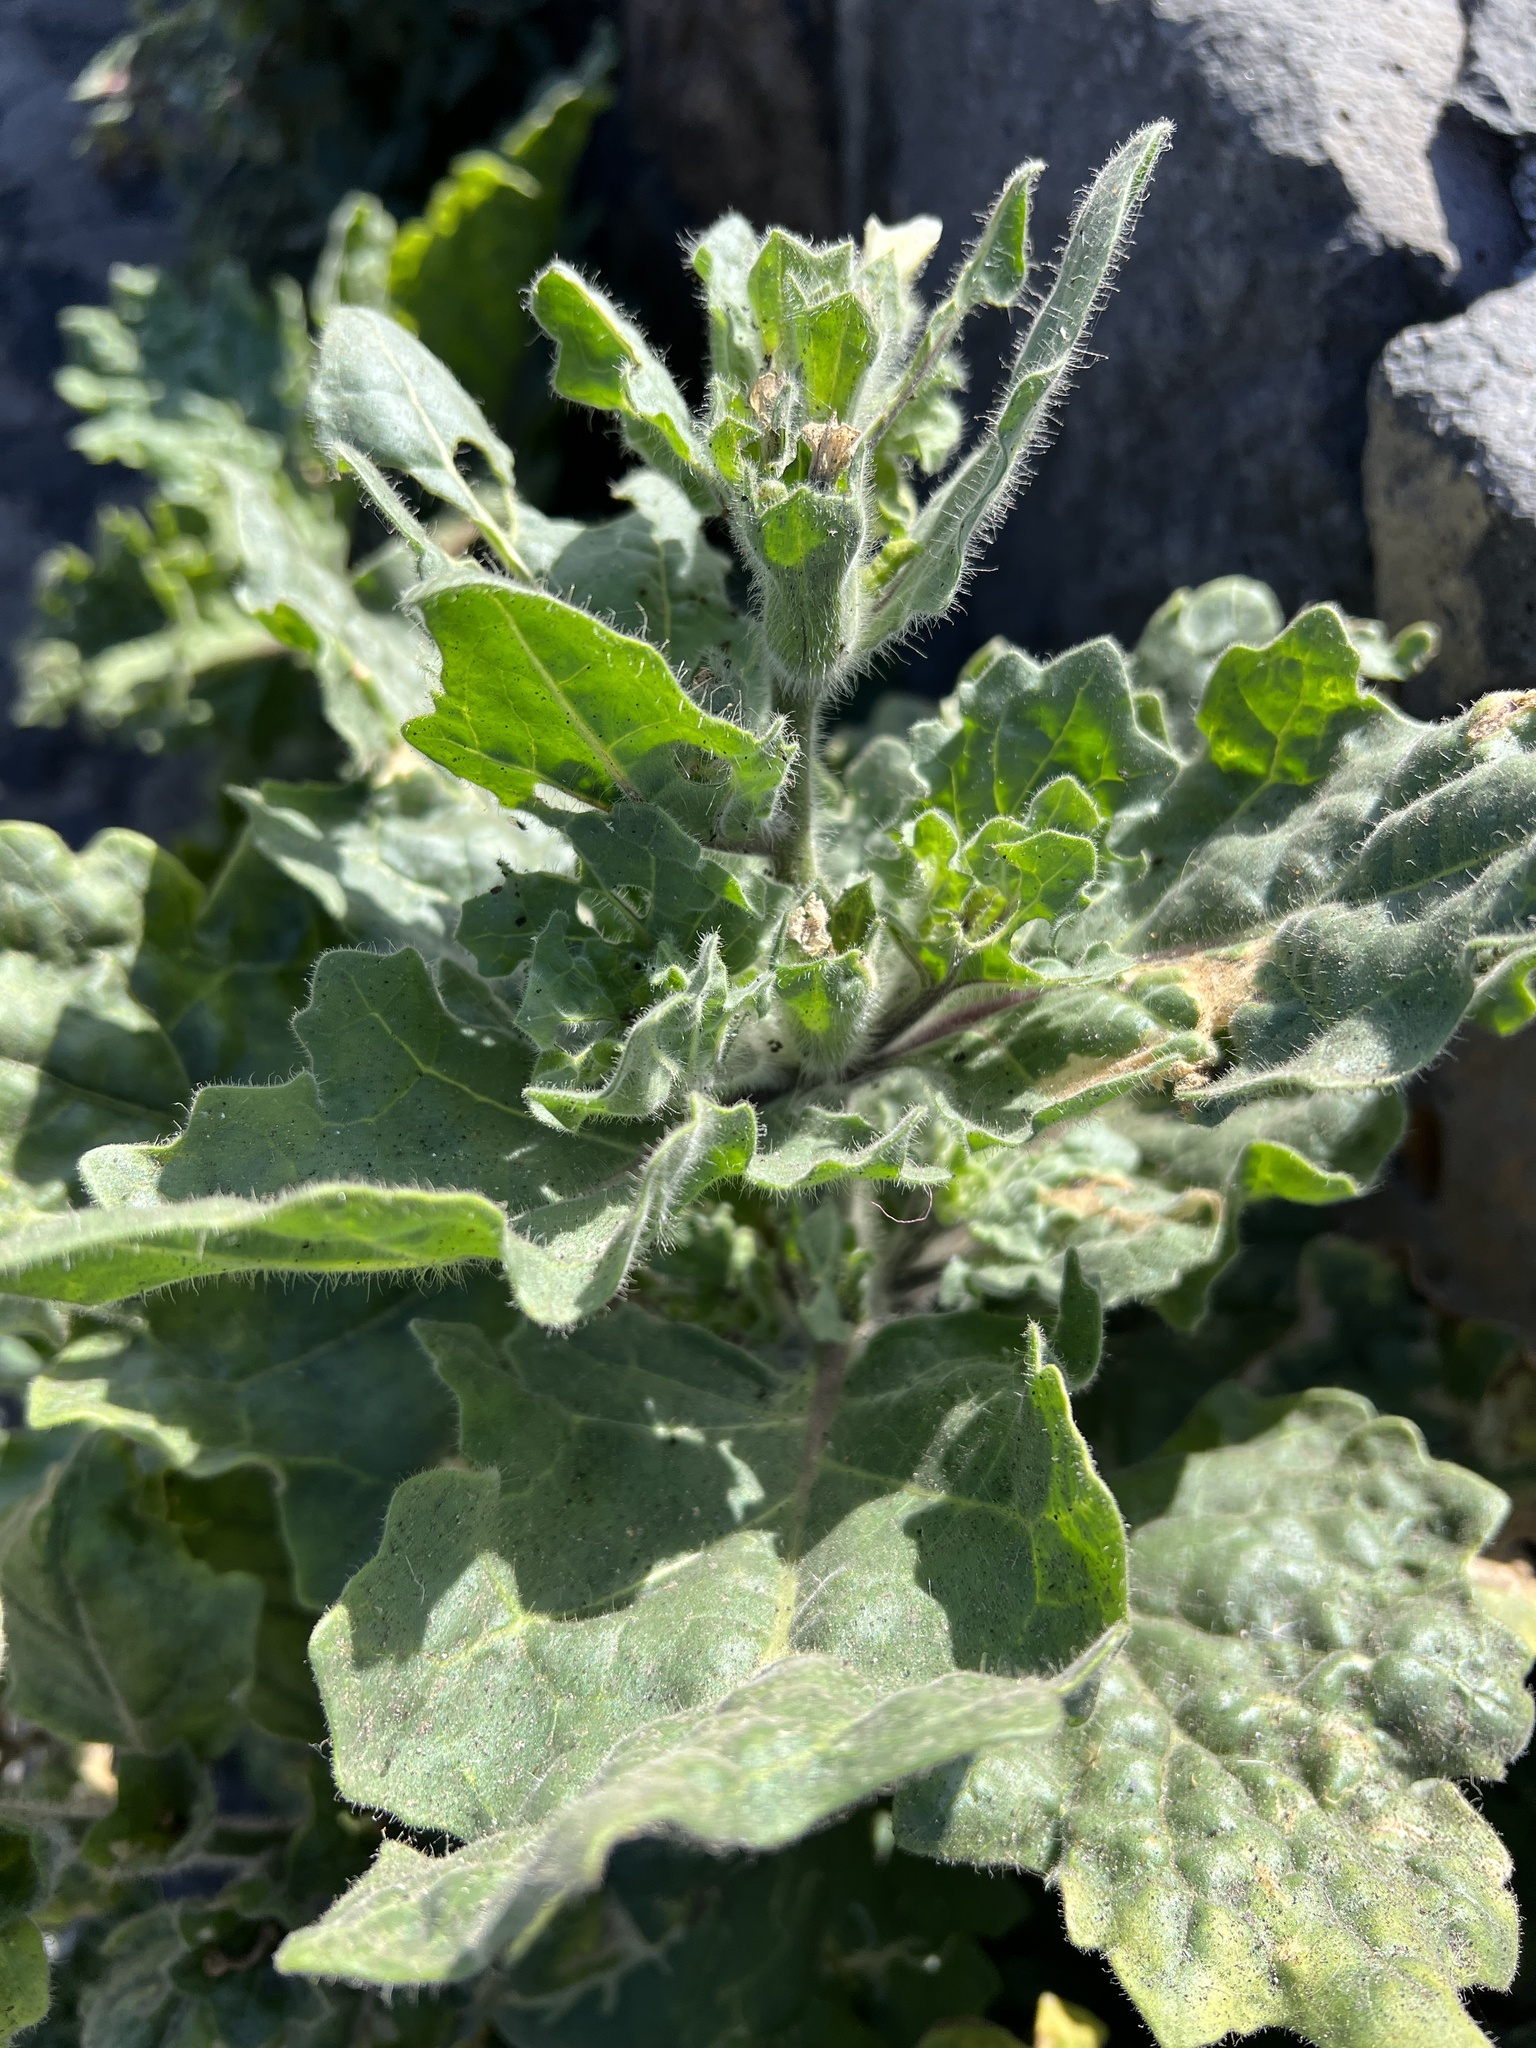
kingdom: Plantae
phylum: Tracheophyta
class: Magnoliopsida
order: Solanales
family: Solanaceae
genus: Hyoscyamus
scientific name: Hyoscyamus albus
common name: White henbane
